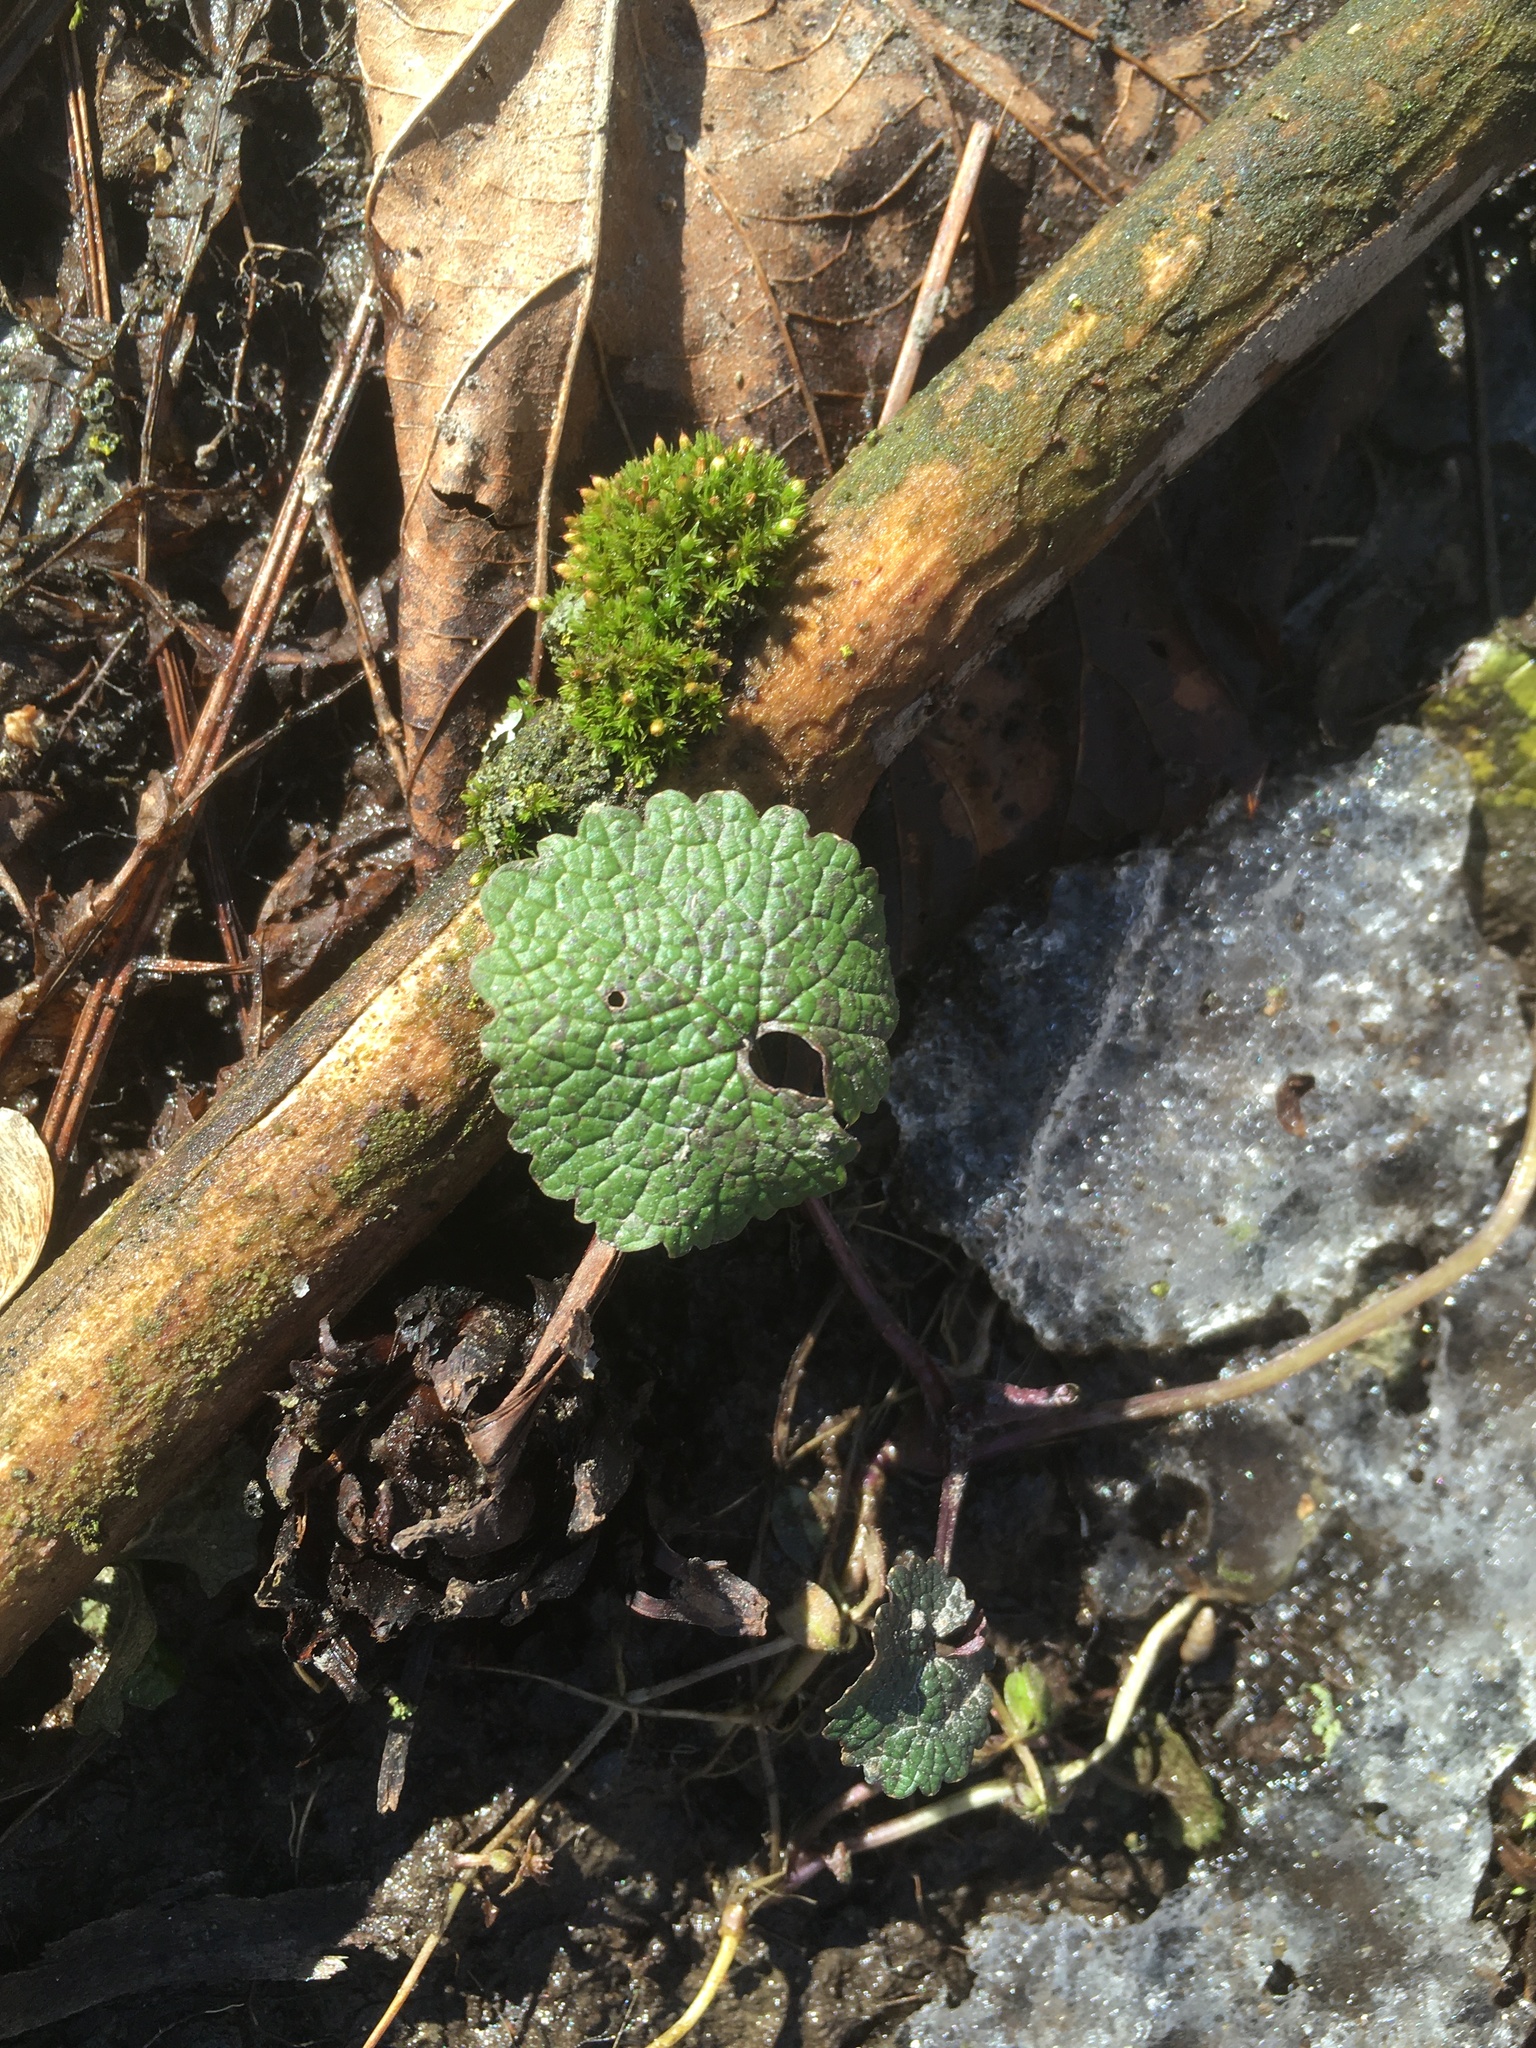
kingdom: Plantae
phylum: Tracheophyta
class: Magnoliopsida
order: Brassicales
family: Brassicaceae
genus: Alliaria
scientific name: Alliaria petiolata
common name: Garlic mustard
